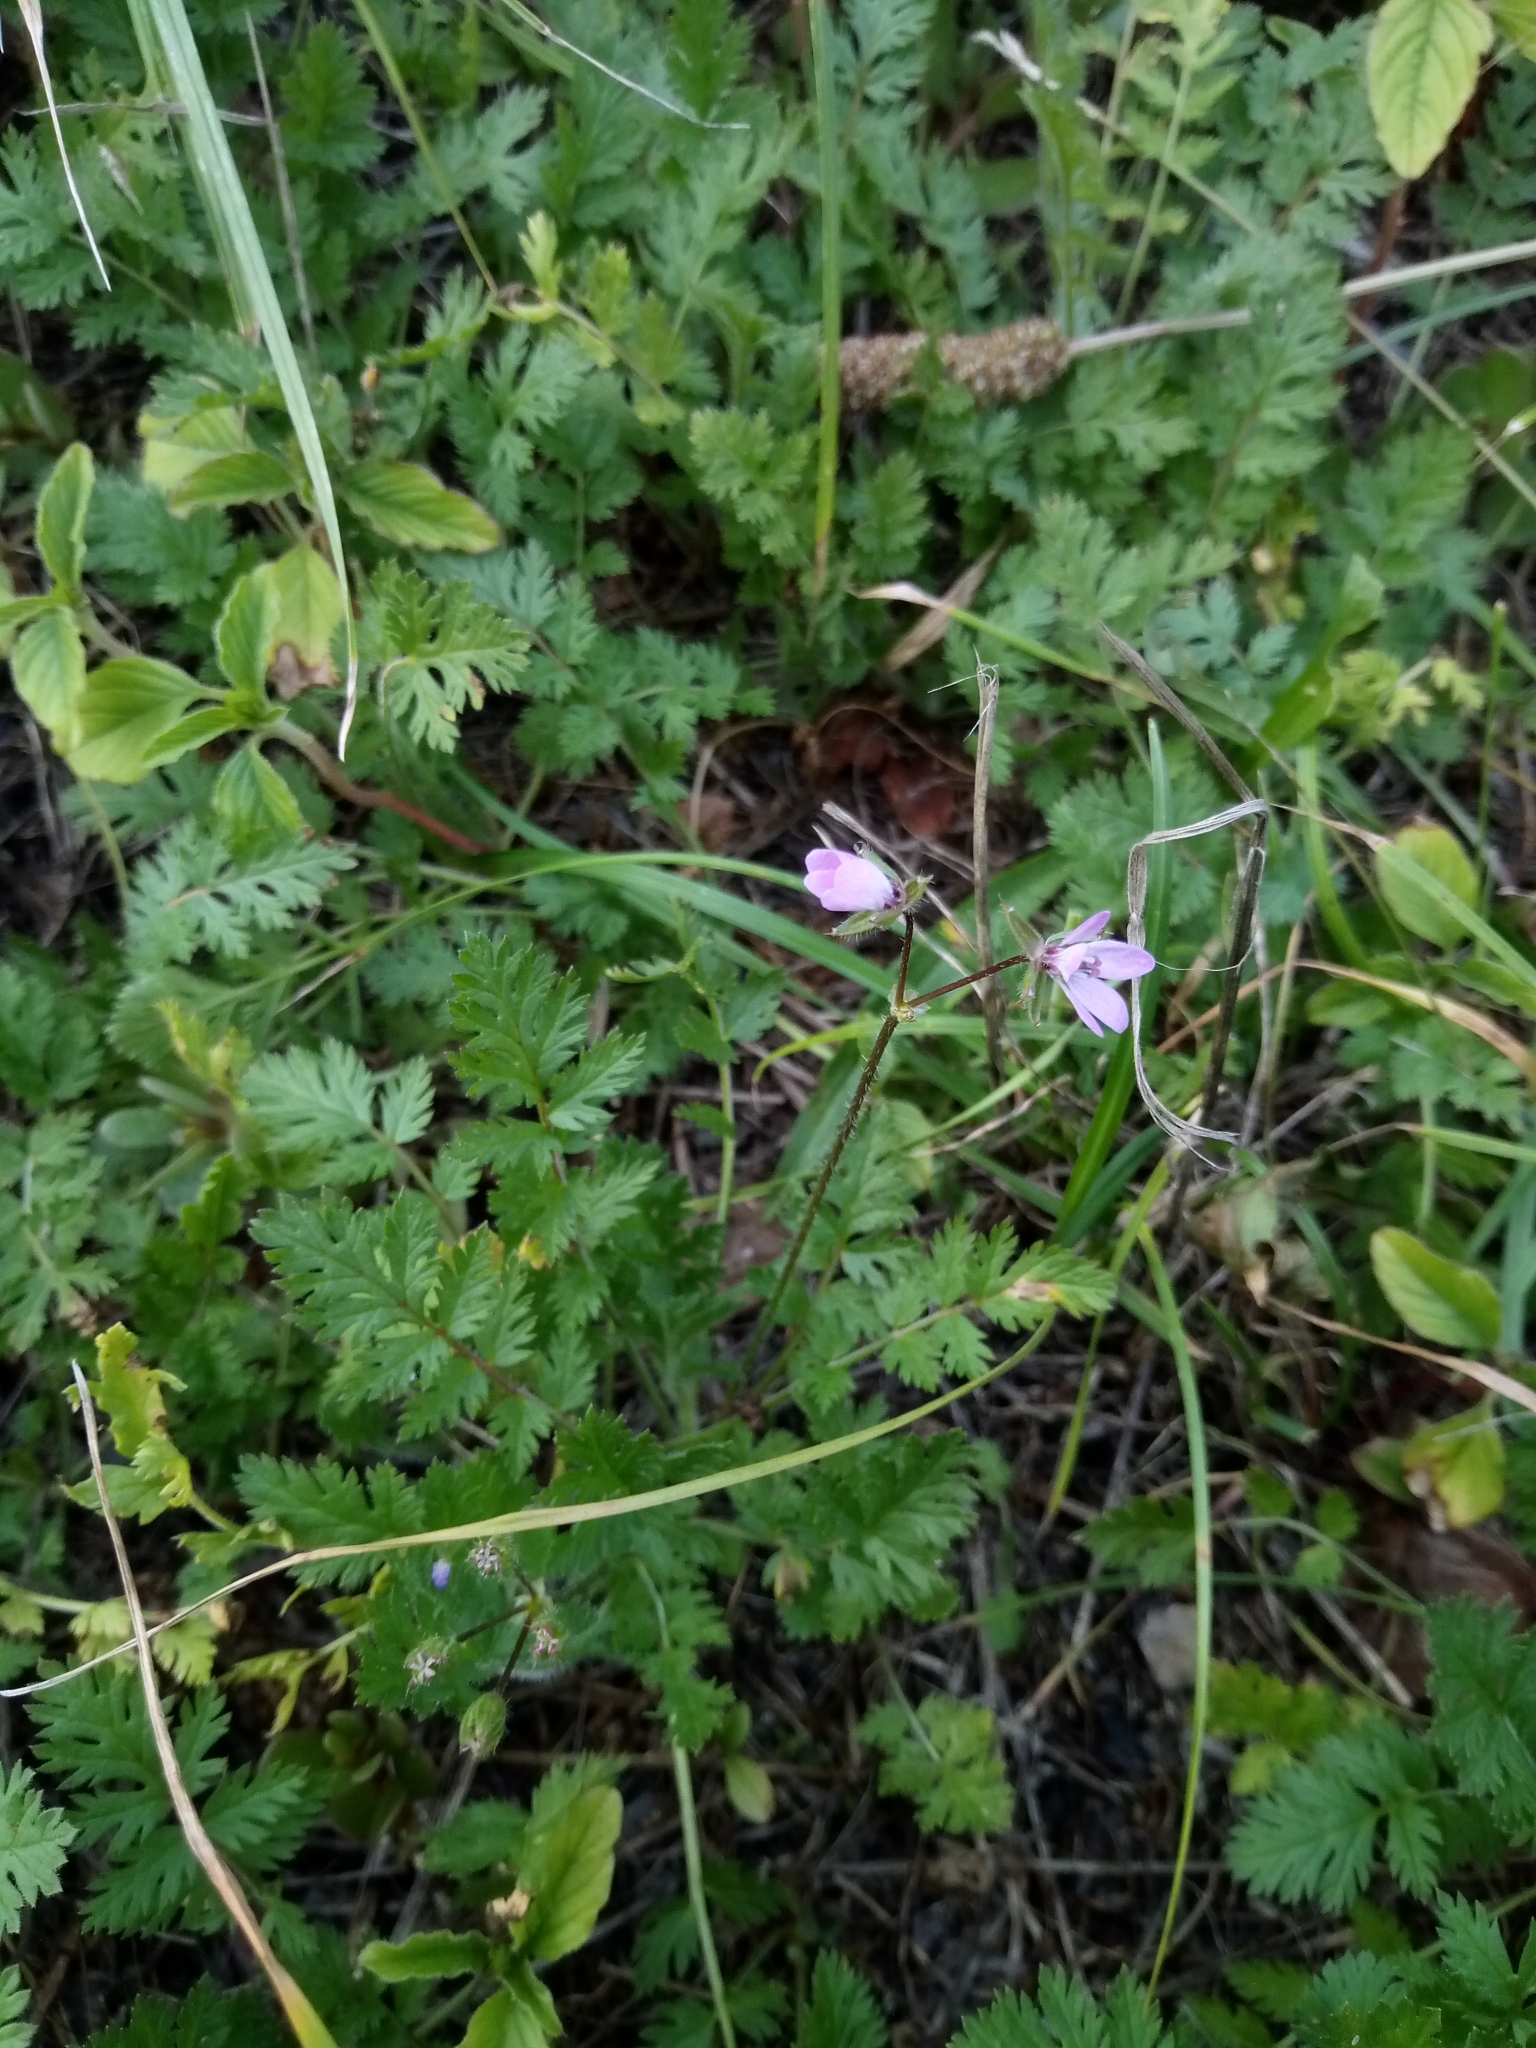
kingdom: Plantae
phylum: Tracheophyta
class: Magnoliopsida
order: Geraniales
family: Geraniaceae
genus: Erodium
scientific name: Erodium cicutarium
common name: Common stork's-bill
